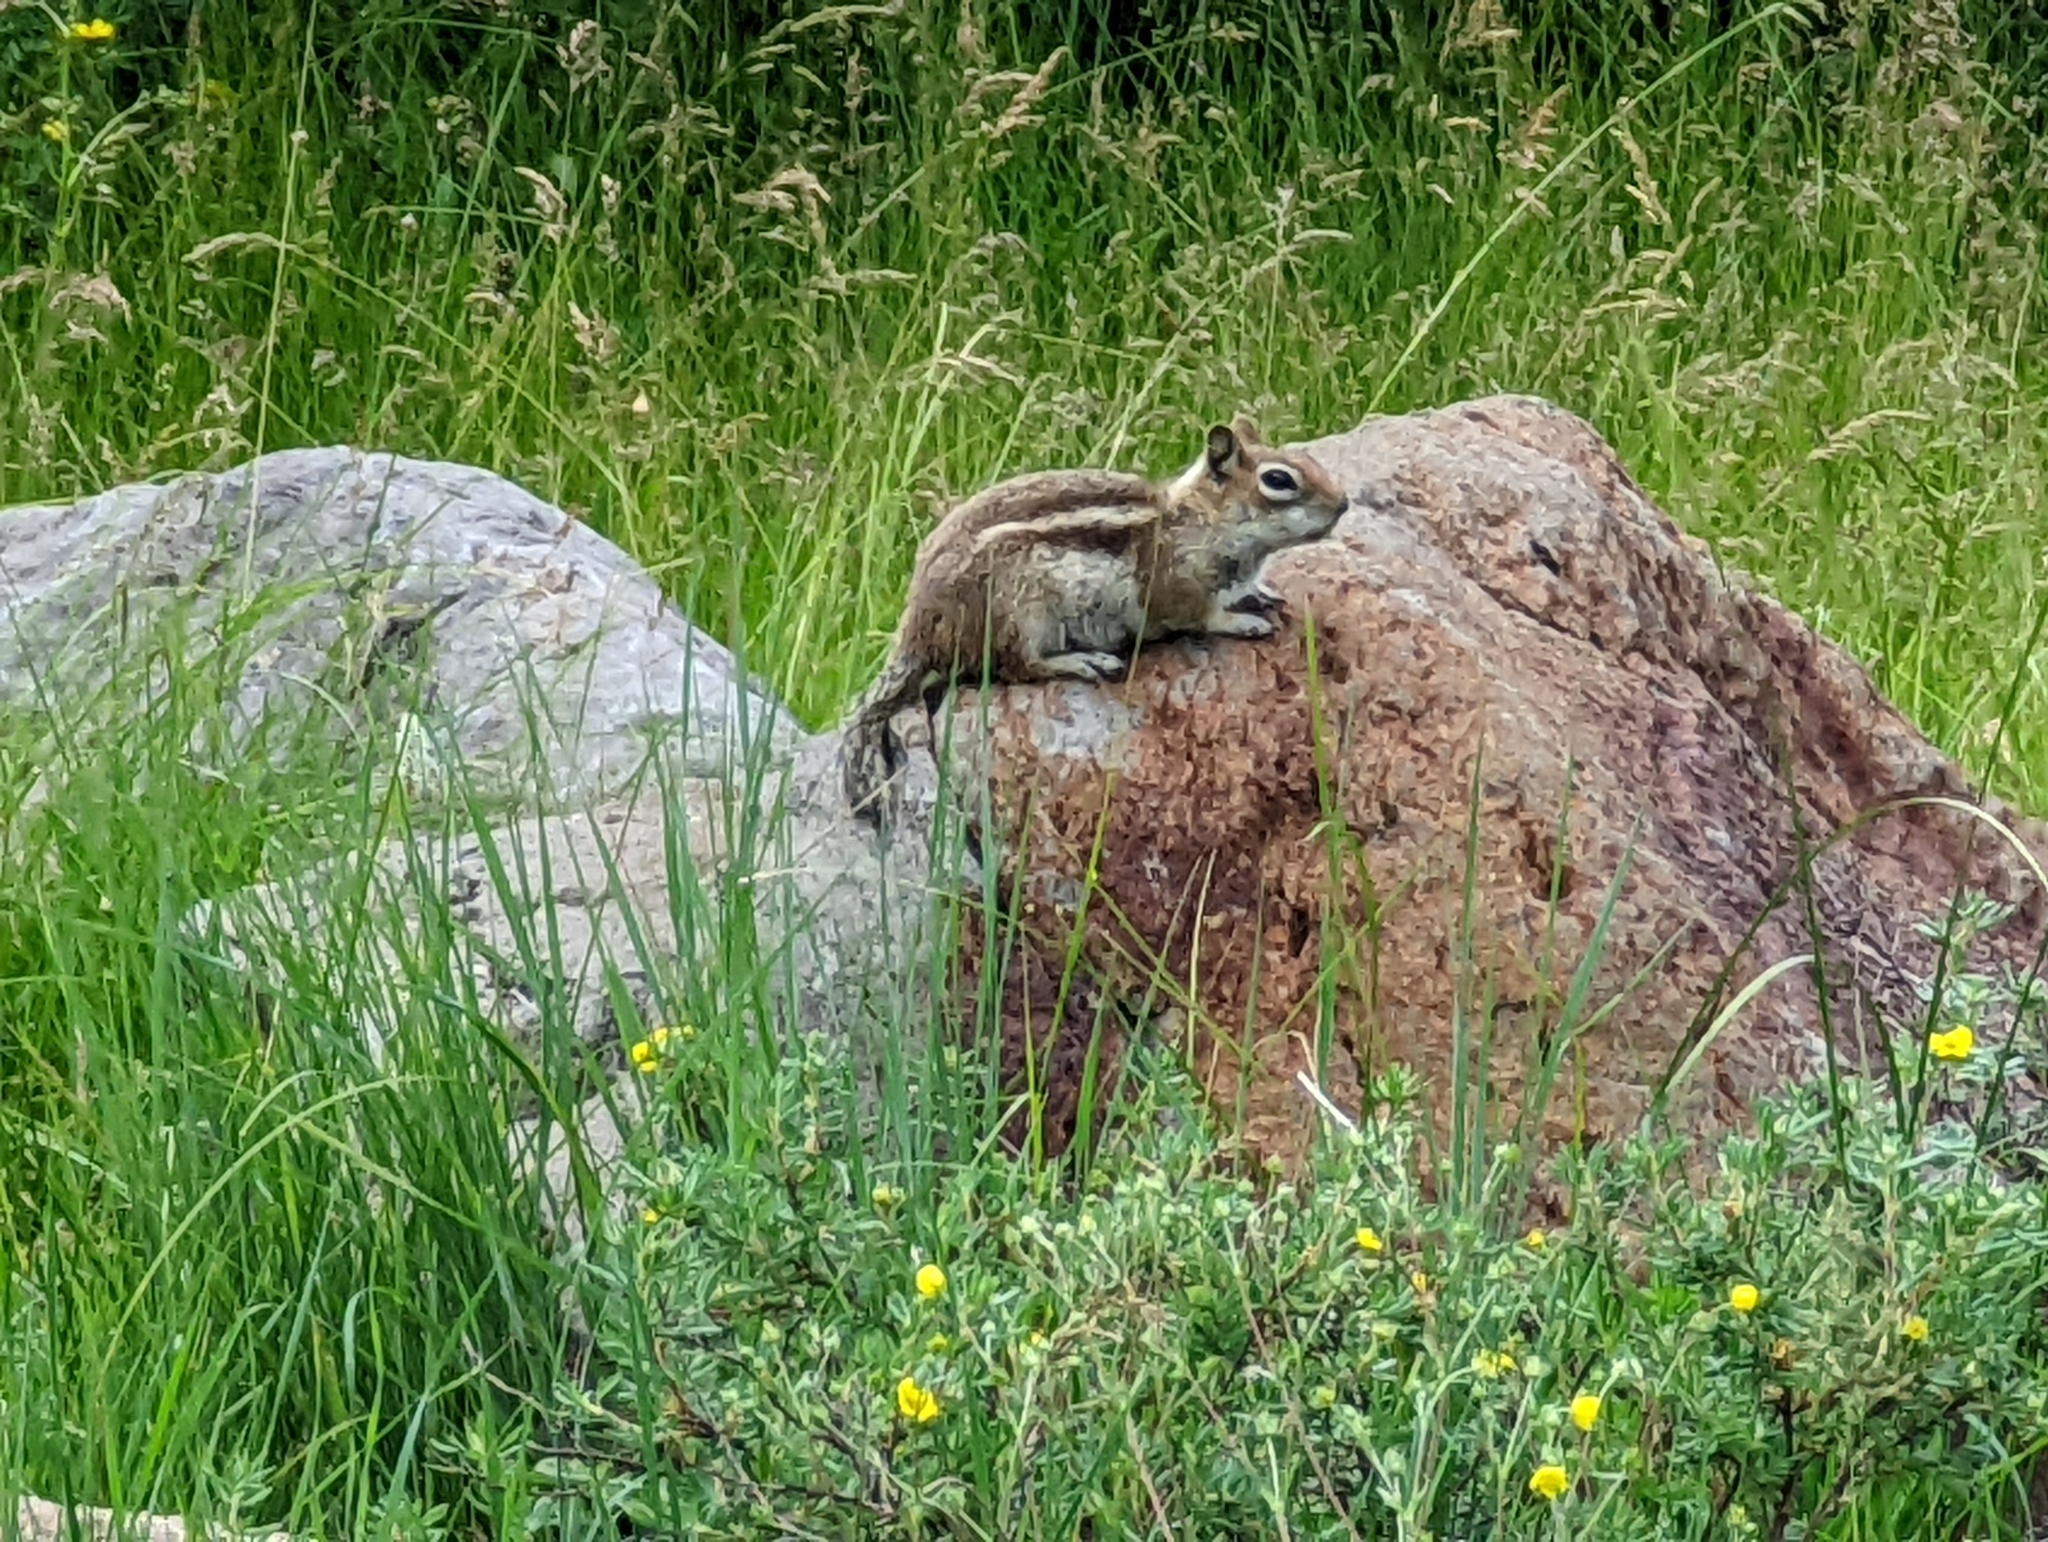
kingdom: Animalia
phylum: Chordata
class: Mammalia
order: Rodentia
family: Sciuridae
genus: Callospermophilus
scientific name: Callospermophilus lateralis
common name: Golden-mantled ground squirrel
